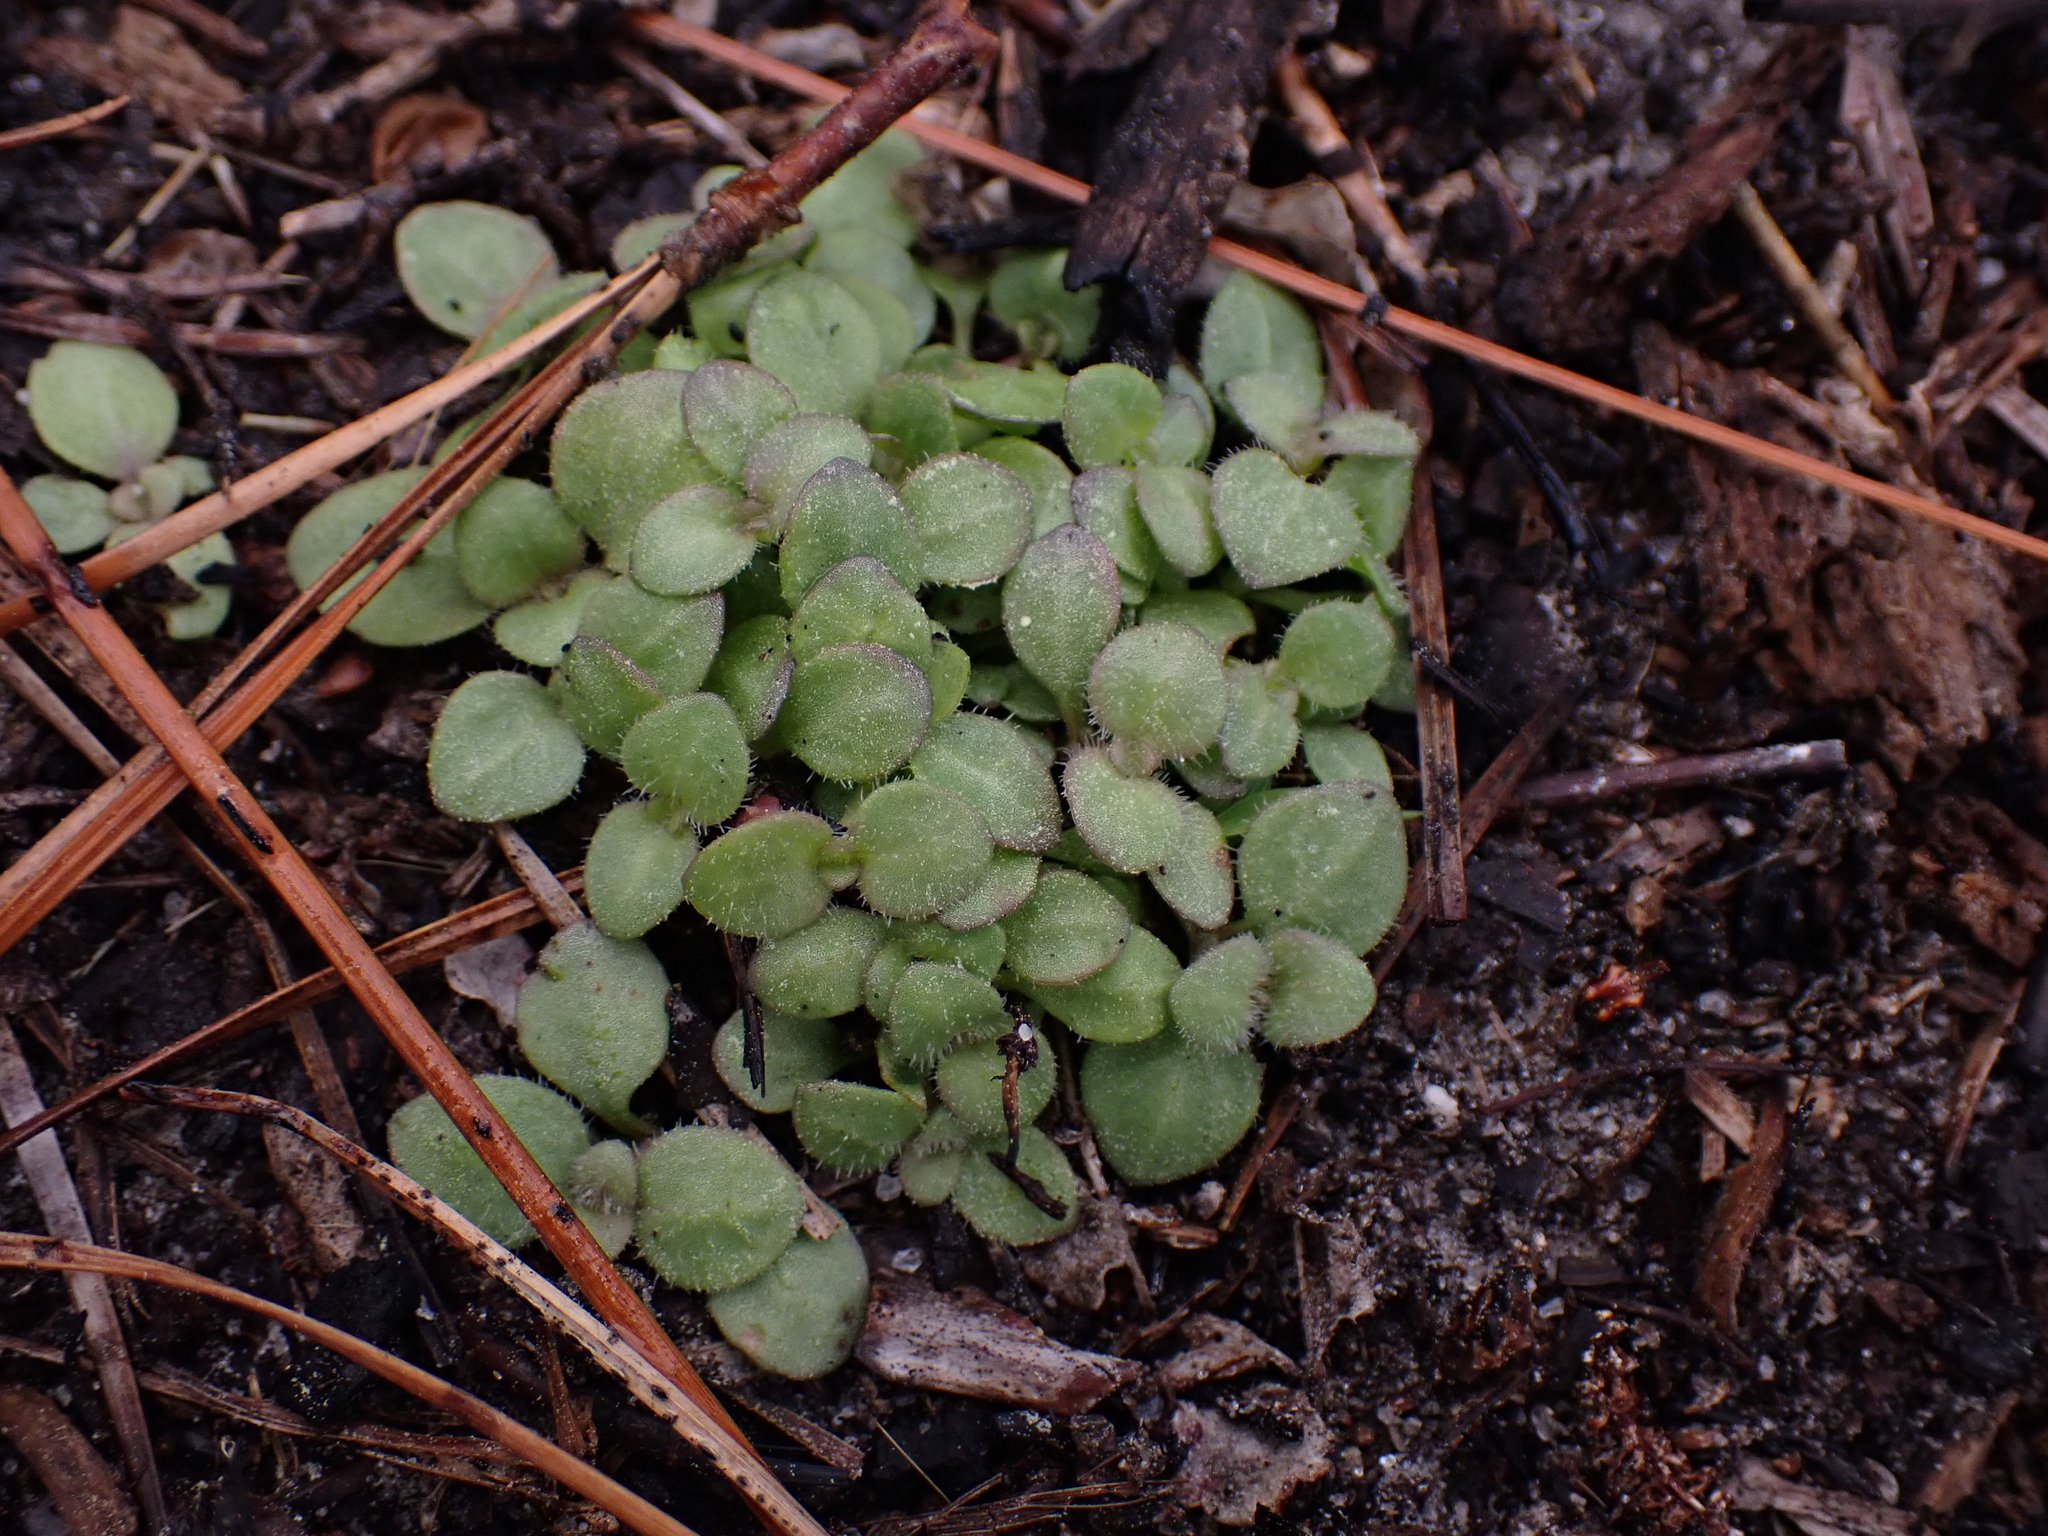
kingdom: Plantae
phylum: Tracheophyta
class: Magnoliopsida
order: Gentianales
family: Rubiaceae
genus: Houstonia
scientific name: Houstonia procumbens
